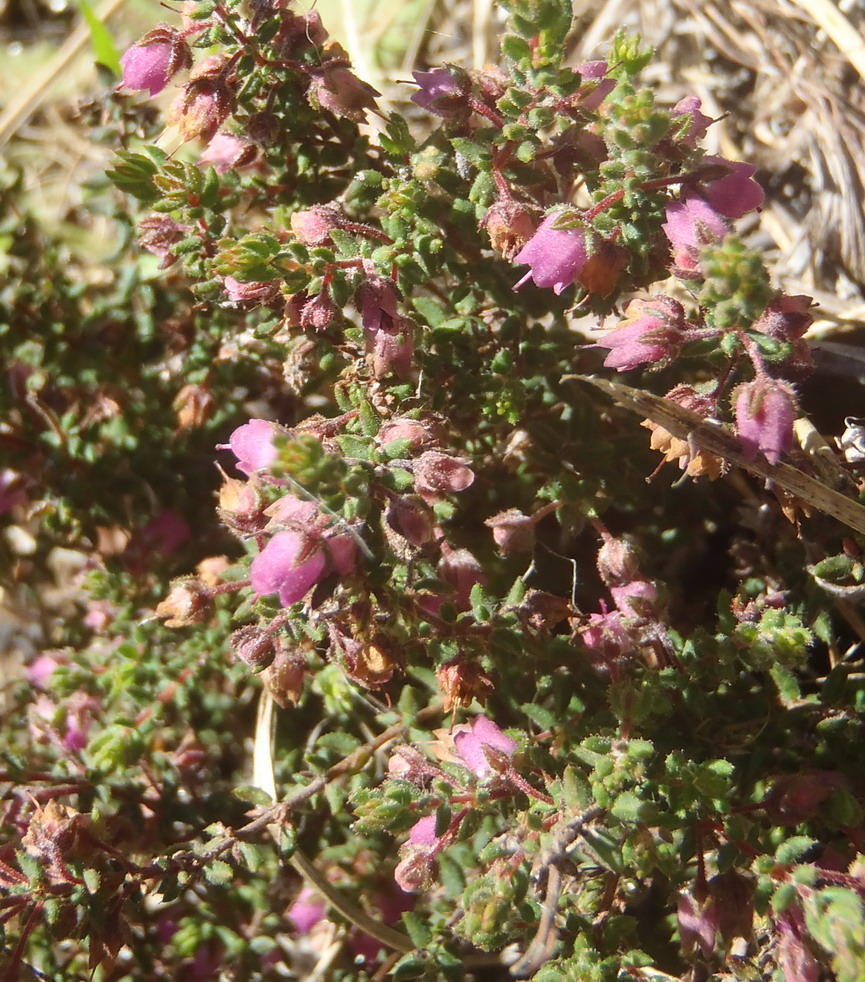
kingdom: Plantae
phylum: Tracheophyta
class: Magnoliopsida
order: Ericales
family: Ericaceae
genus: Erica
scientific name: Erica planifolia
